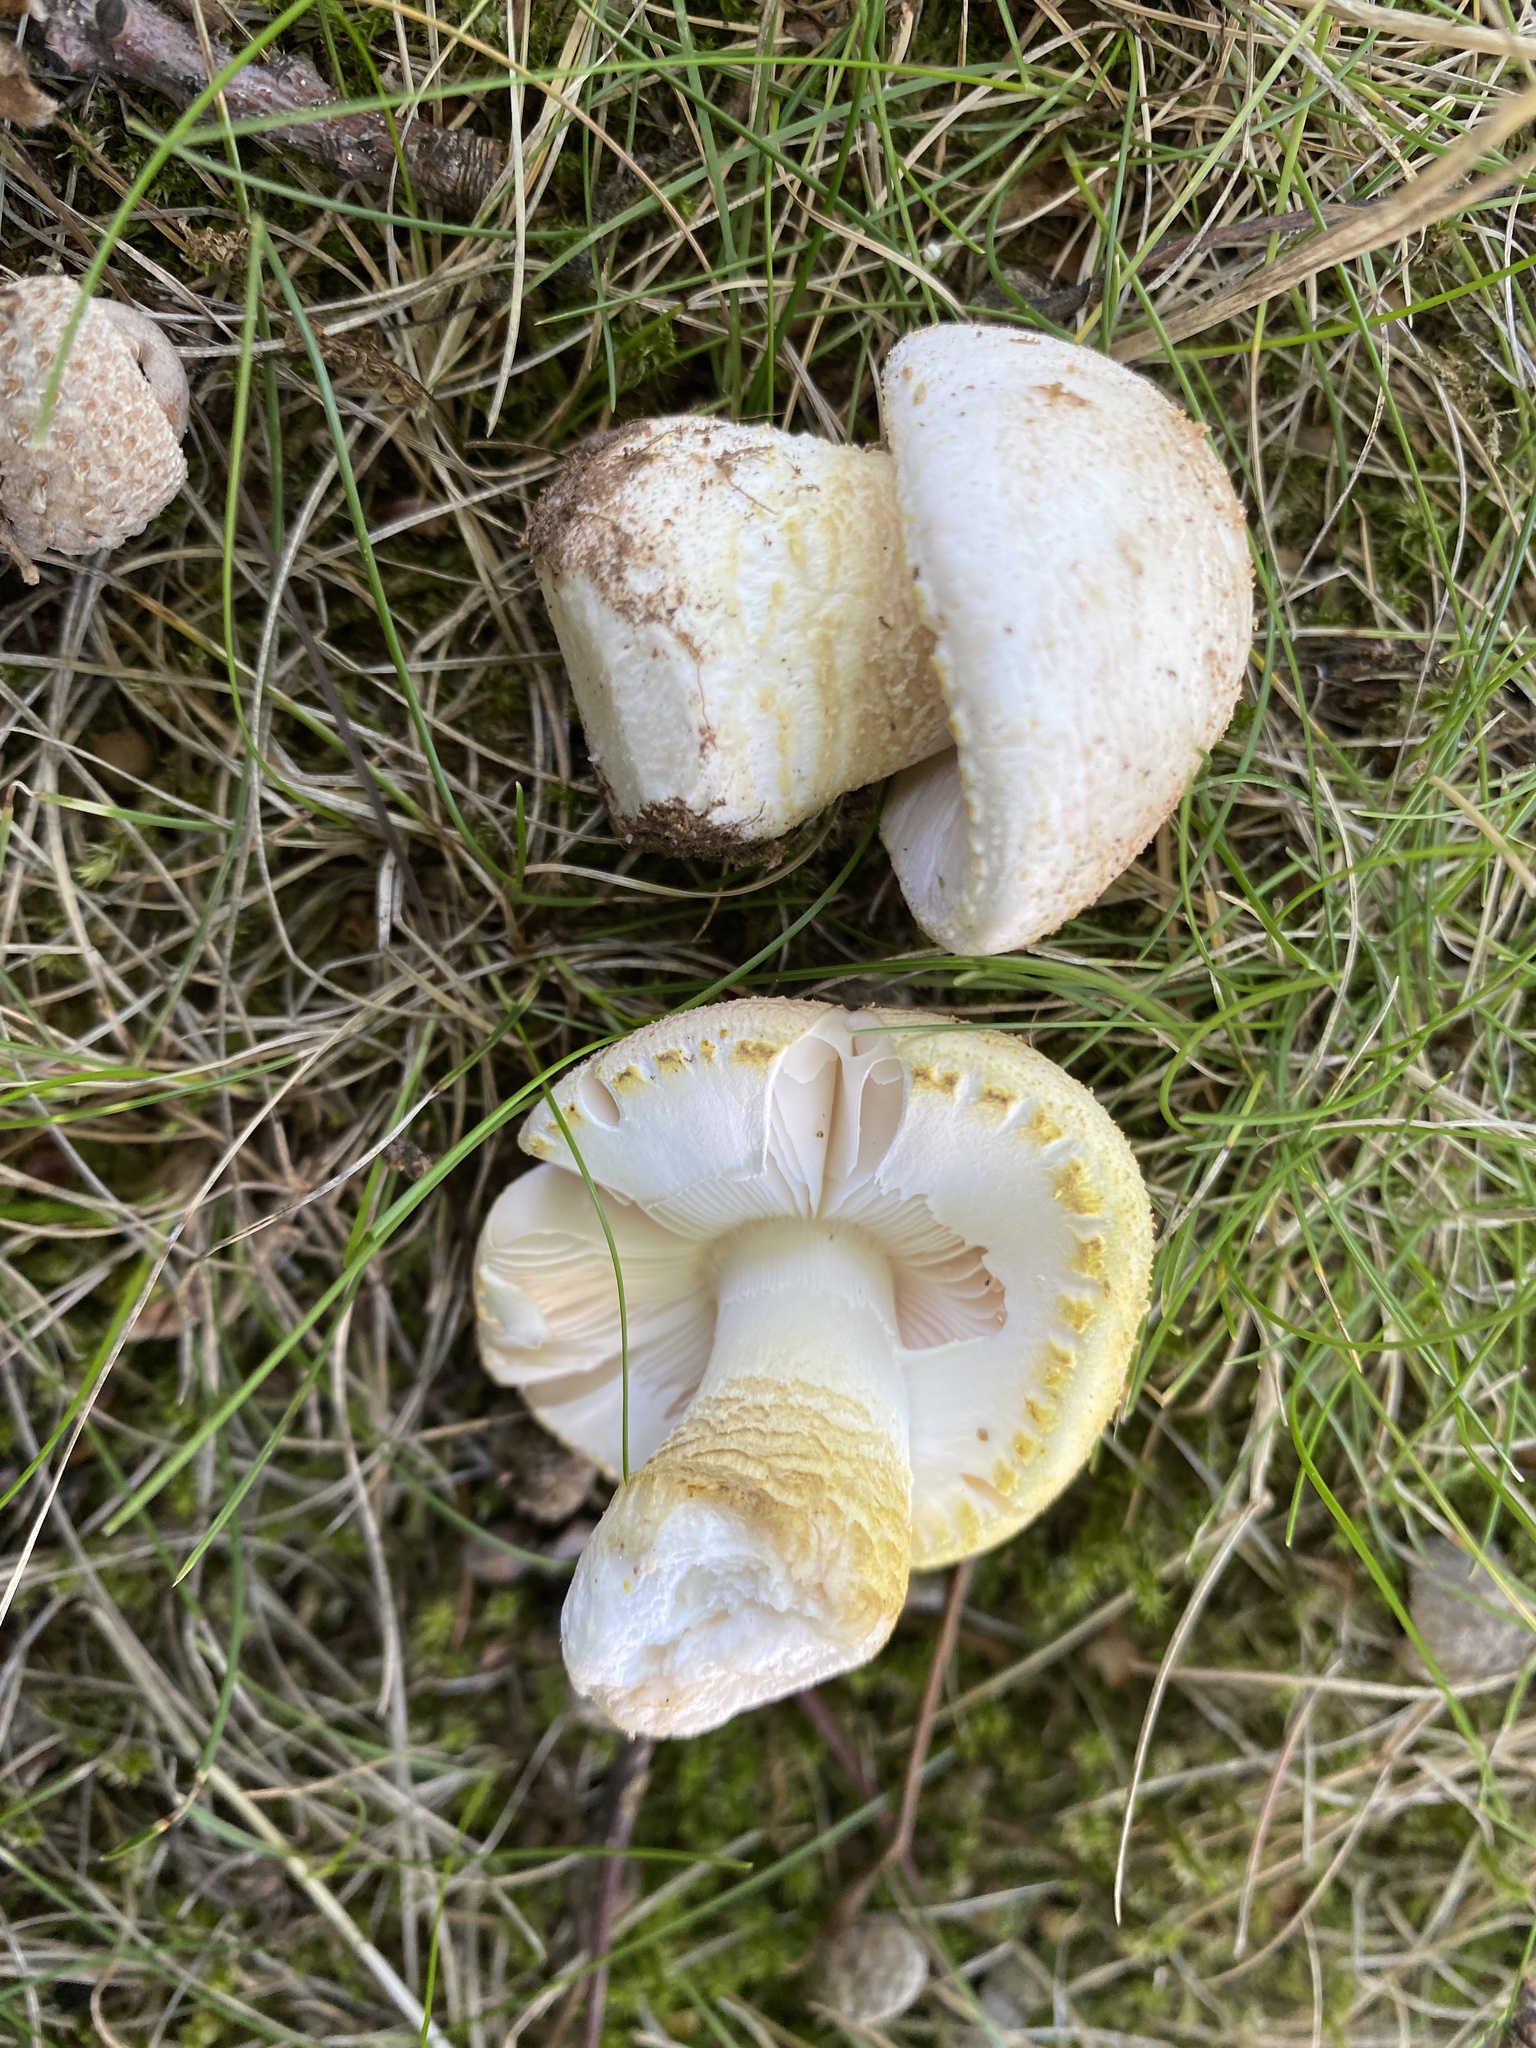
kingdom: Fungi
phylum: Basidiomycota
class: Agaricomycetes
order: Agaricales
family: Amanitaceae
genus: Amanita
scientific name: Amanita franchetii
